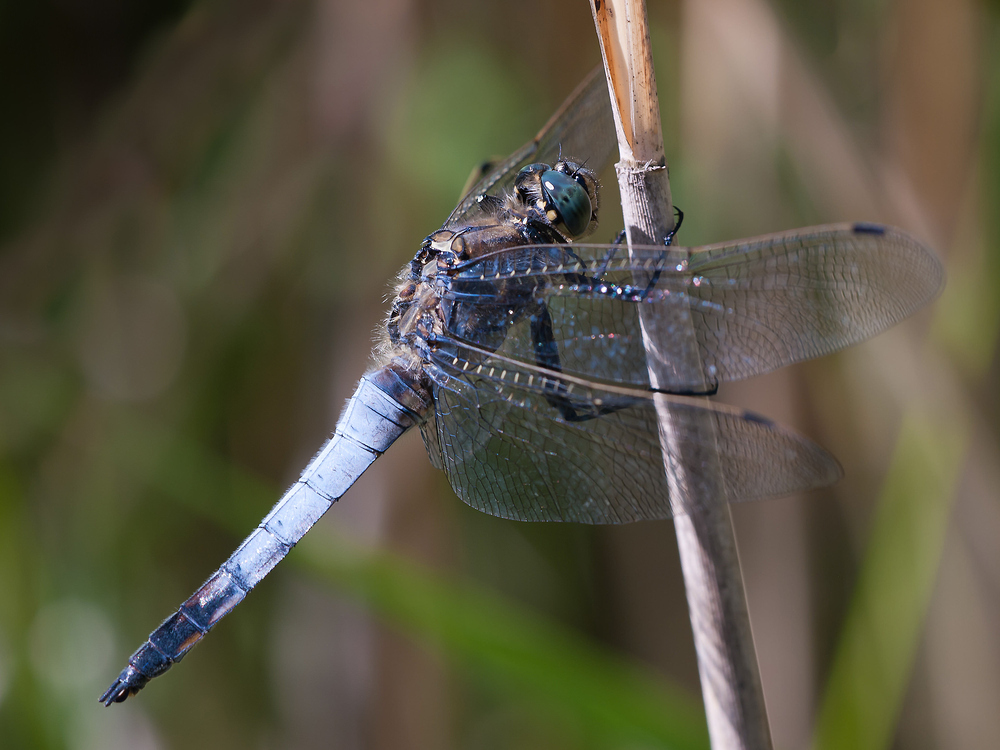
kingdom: Animalia
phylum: Arthropoda
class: Insecta
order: Odonata
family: Libellulidae
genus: Orthetrum
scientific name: Orthetrum cancellatum
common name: Black-tailed skimmer
